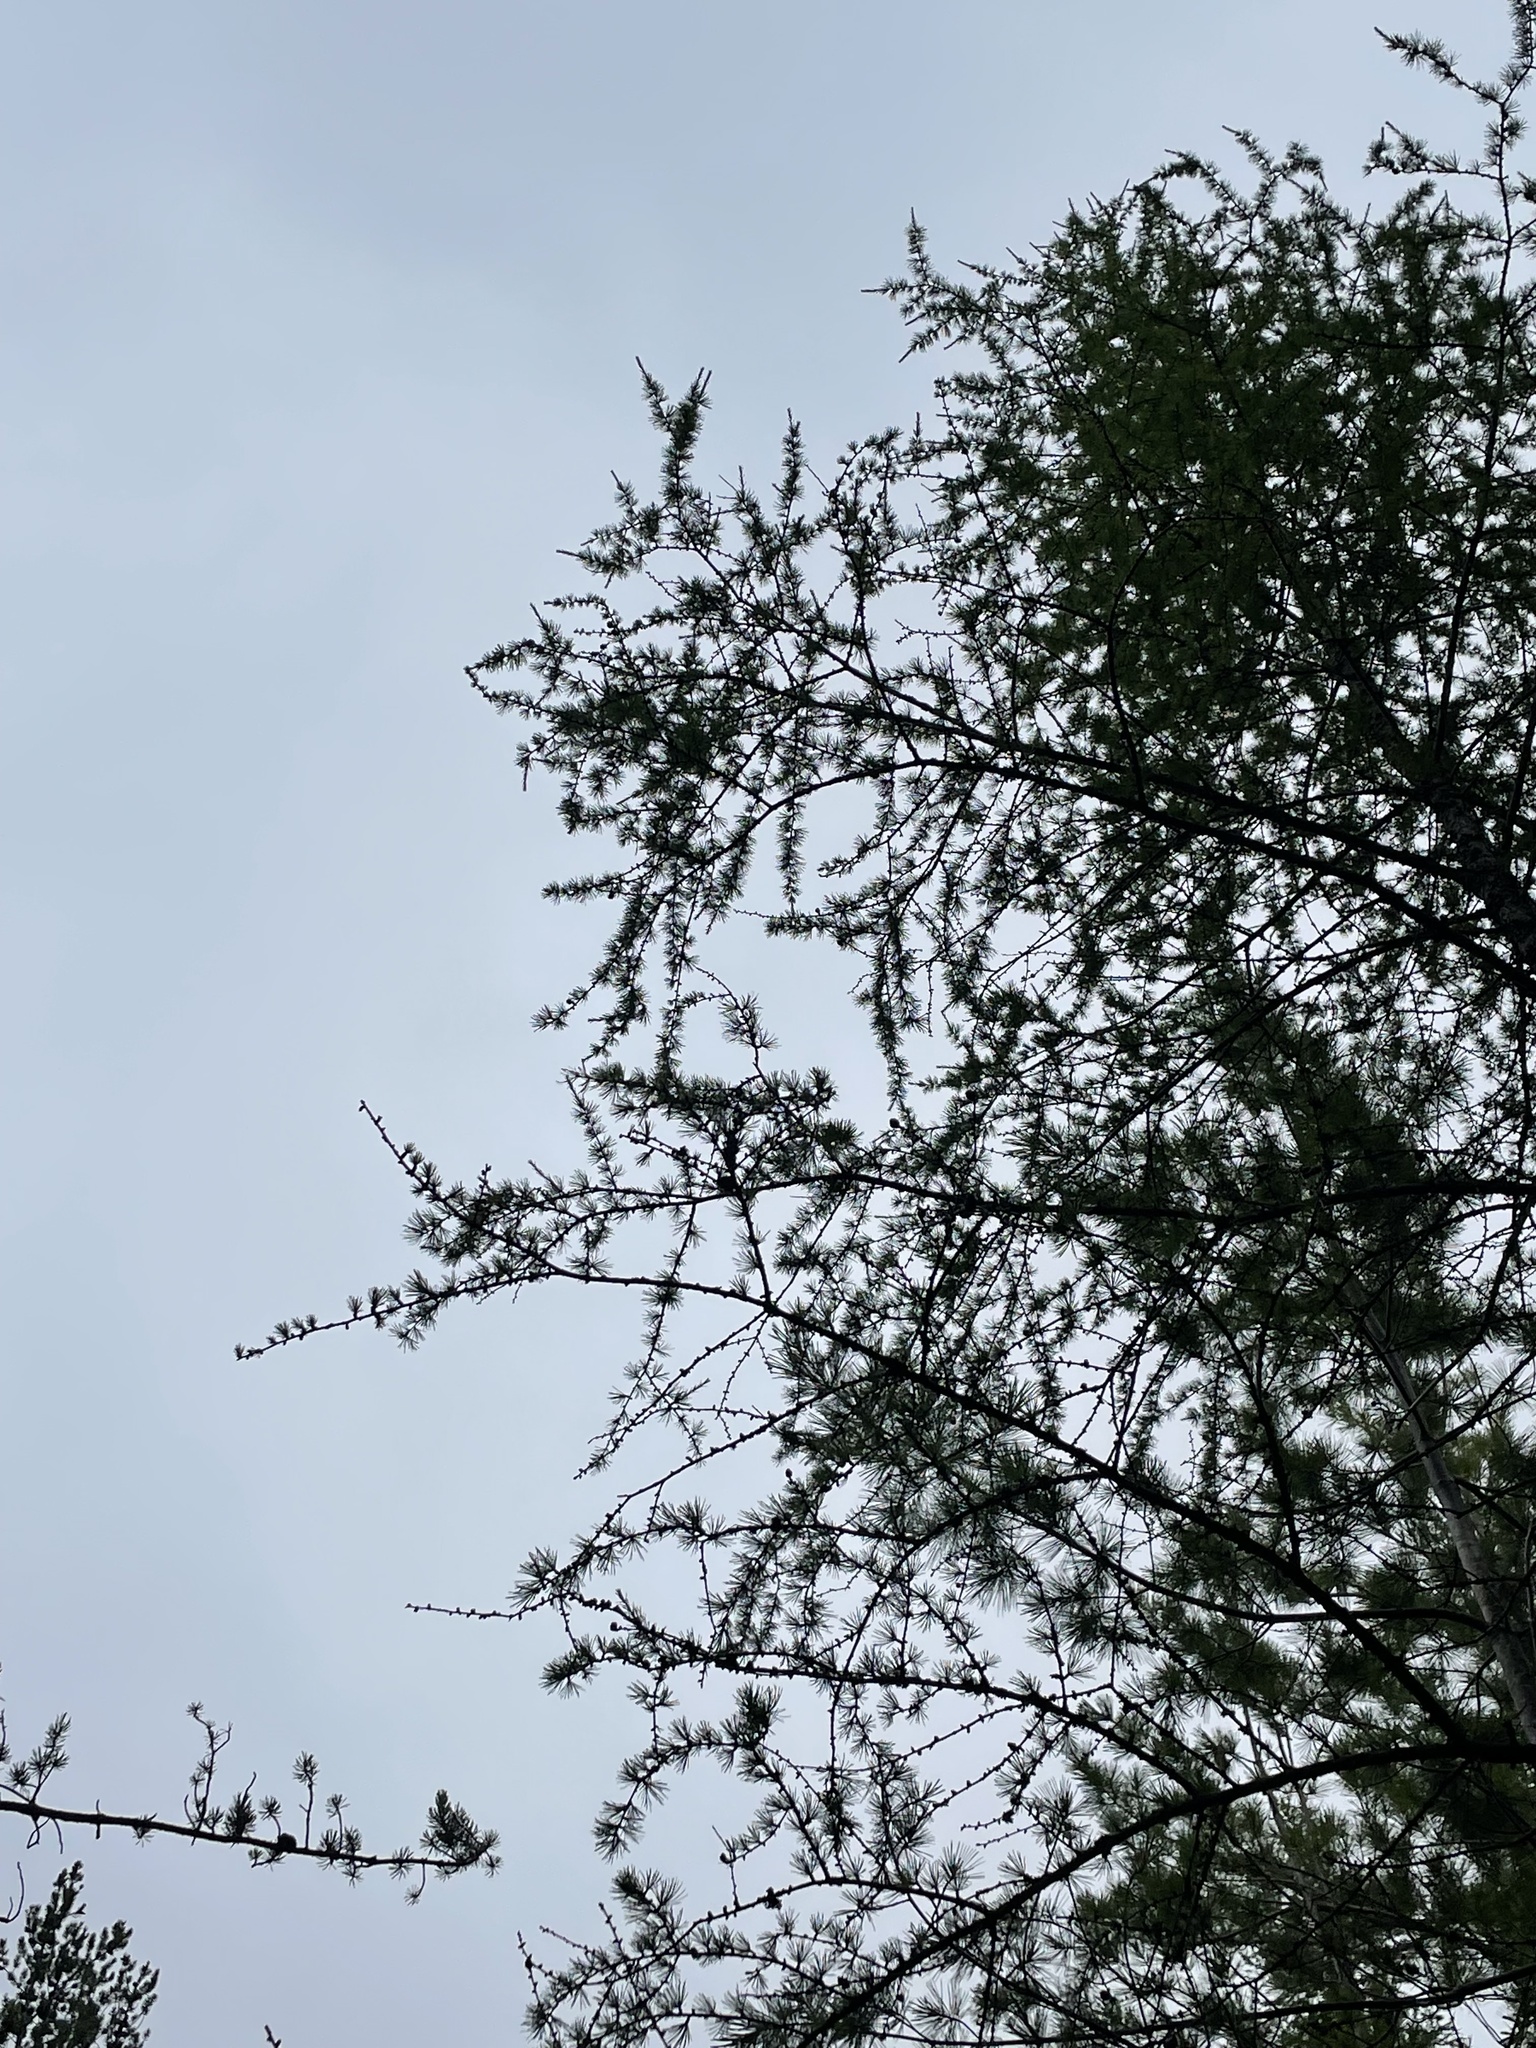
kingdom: Plantae
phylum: Tracheophyta
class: Pinopsida
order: Pinales
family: Pinaceae
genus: Larix
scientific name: Larix laricina
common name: American larch
